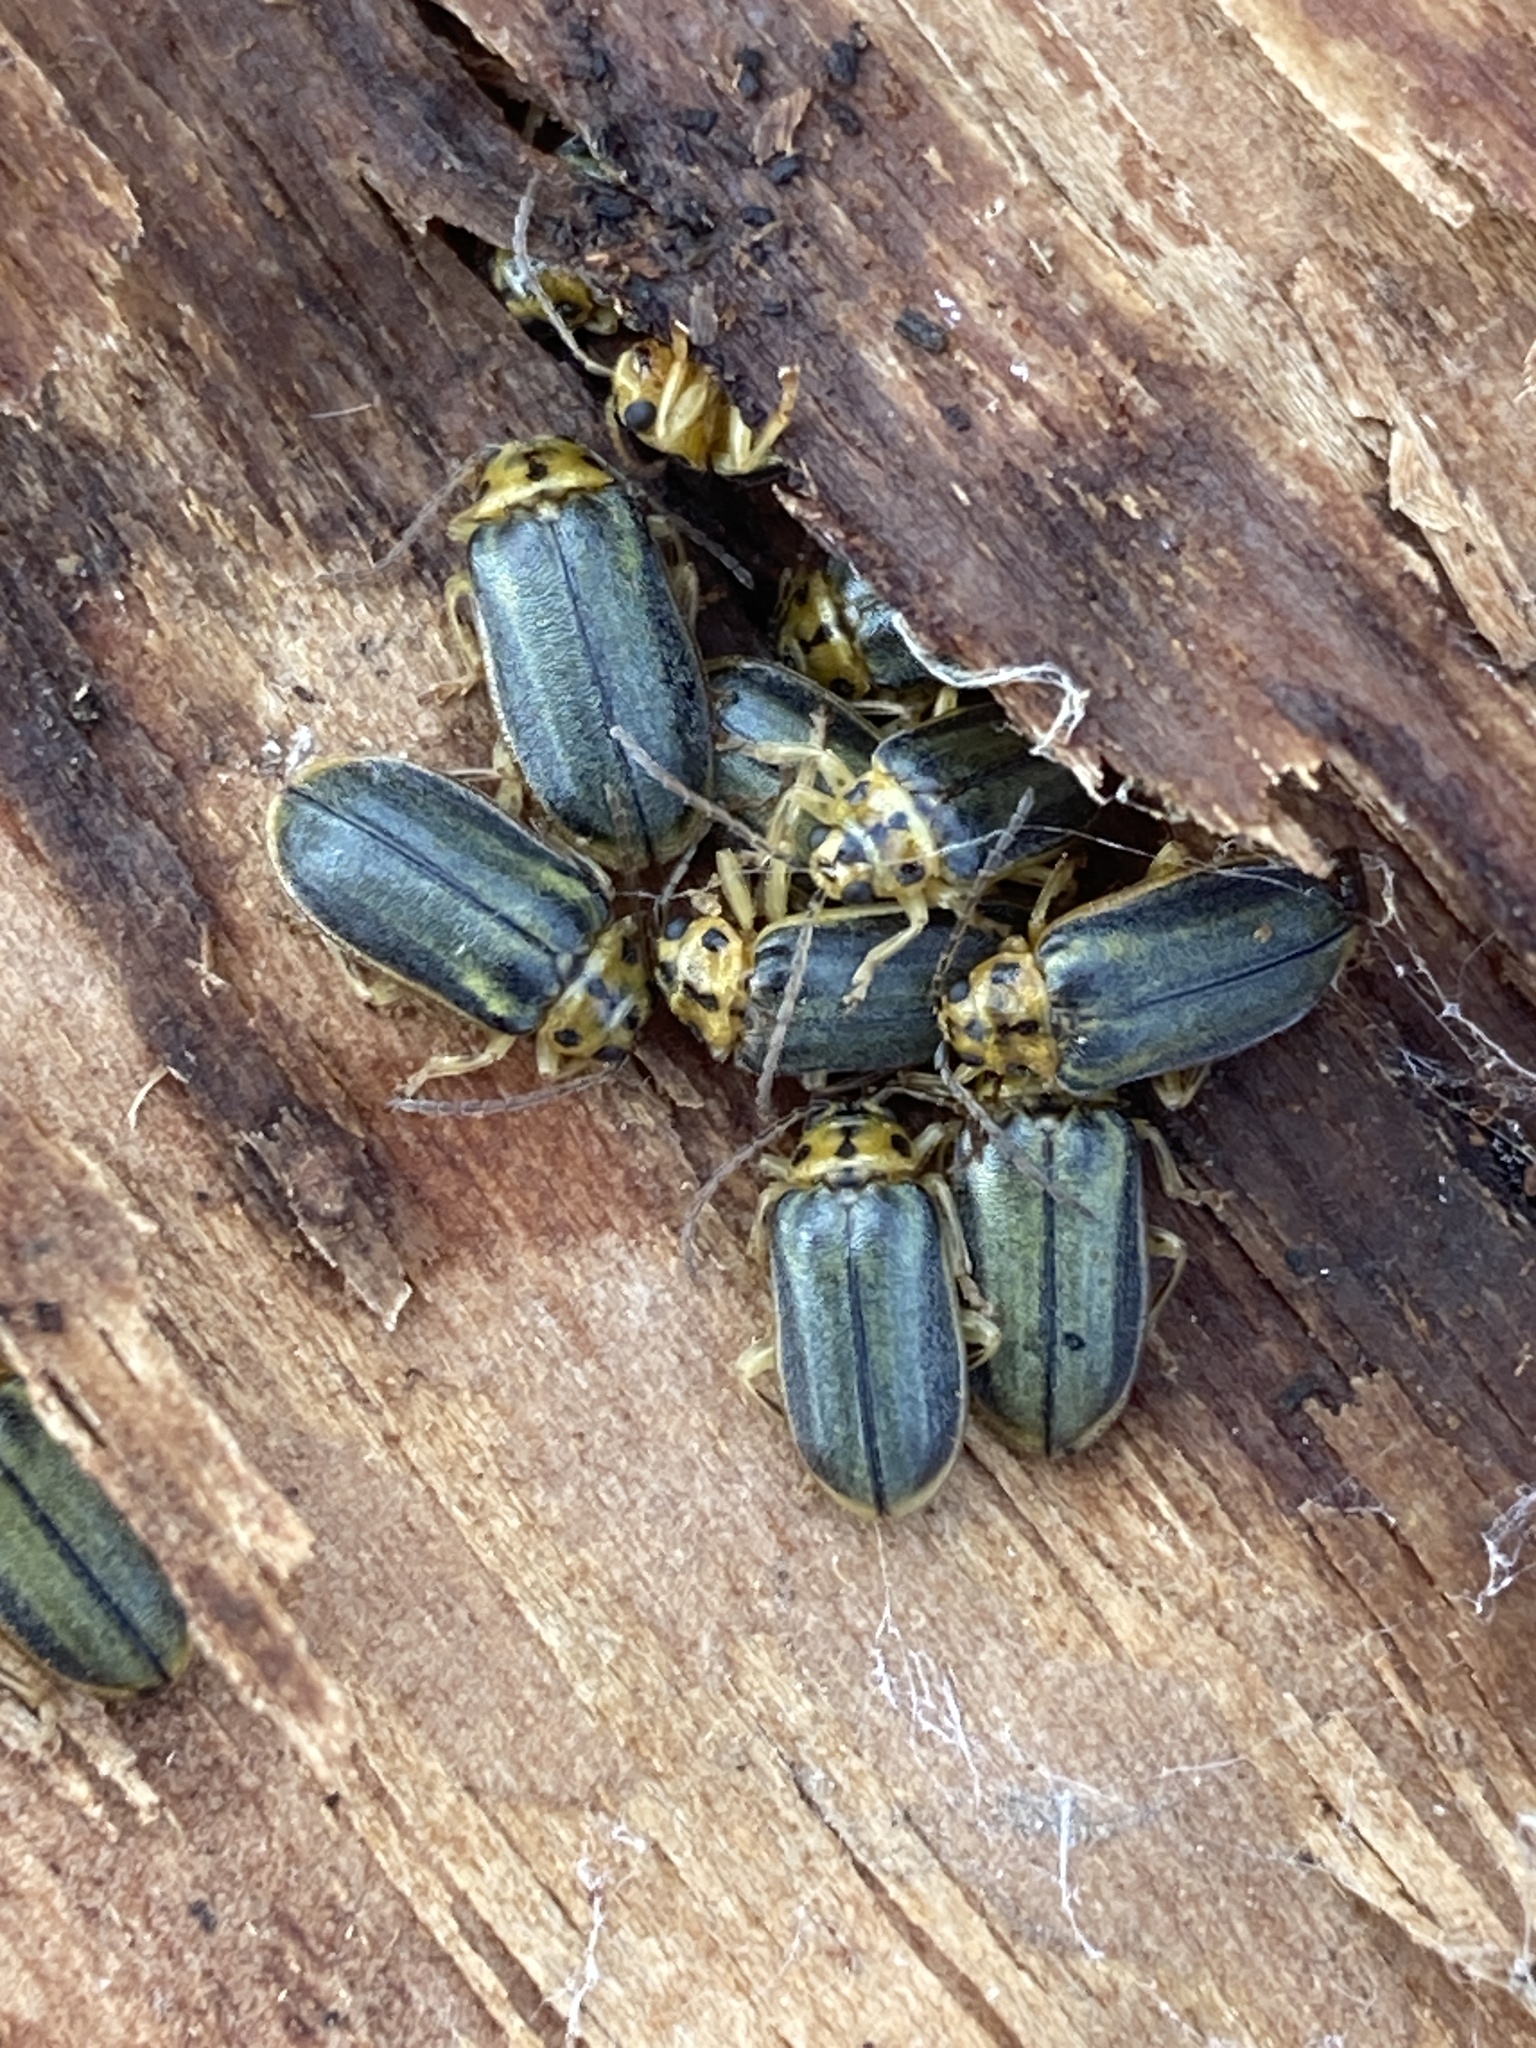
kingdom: Animalia
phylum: Arthropoda
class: Insecta
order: Coleoptera
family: Chrysomelidae
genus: Xanthogaleruca
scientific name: Xanthogaleruca luteola
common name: Elm leaf beetle
